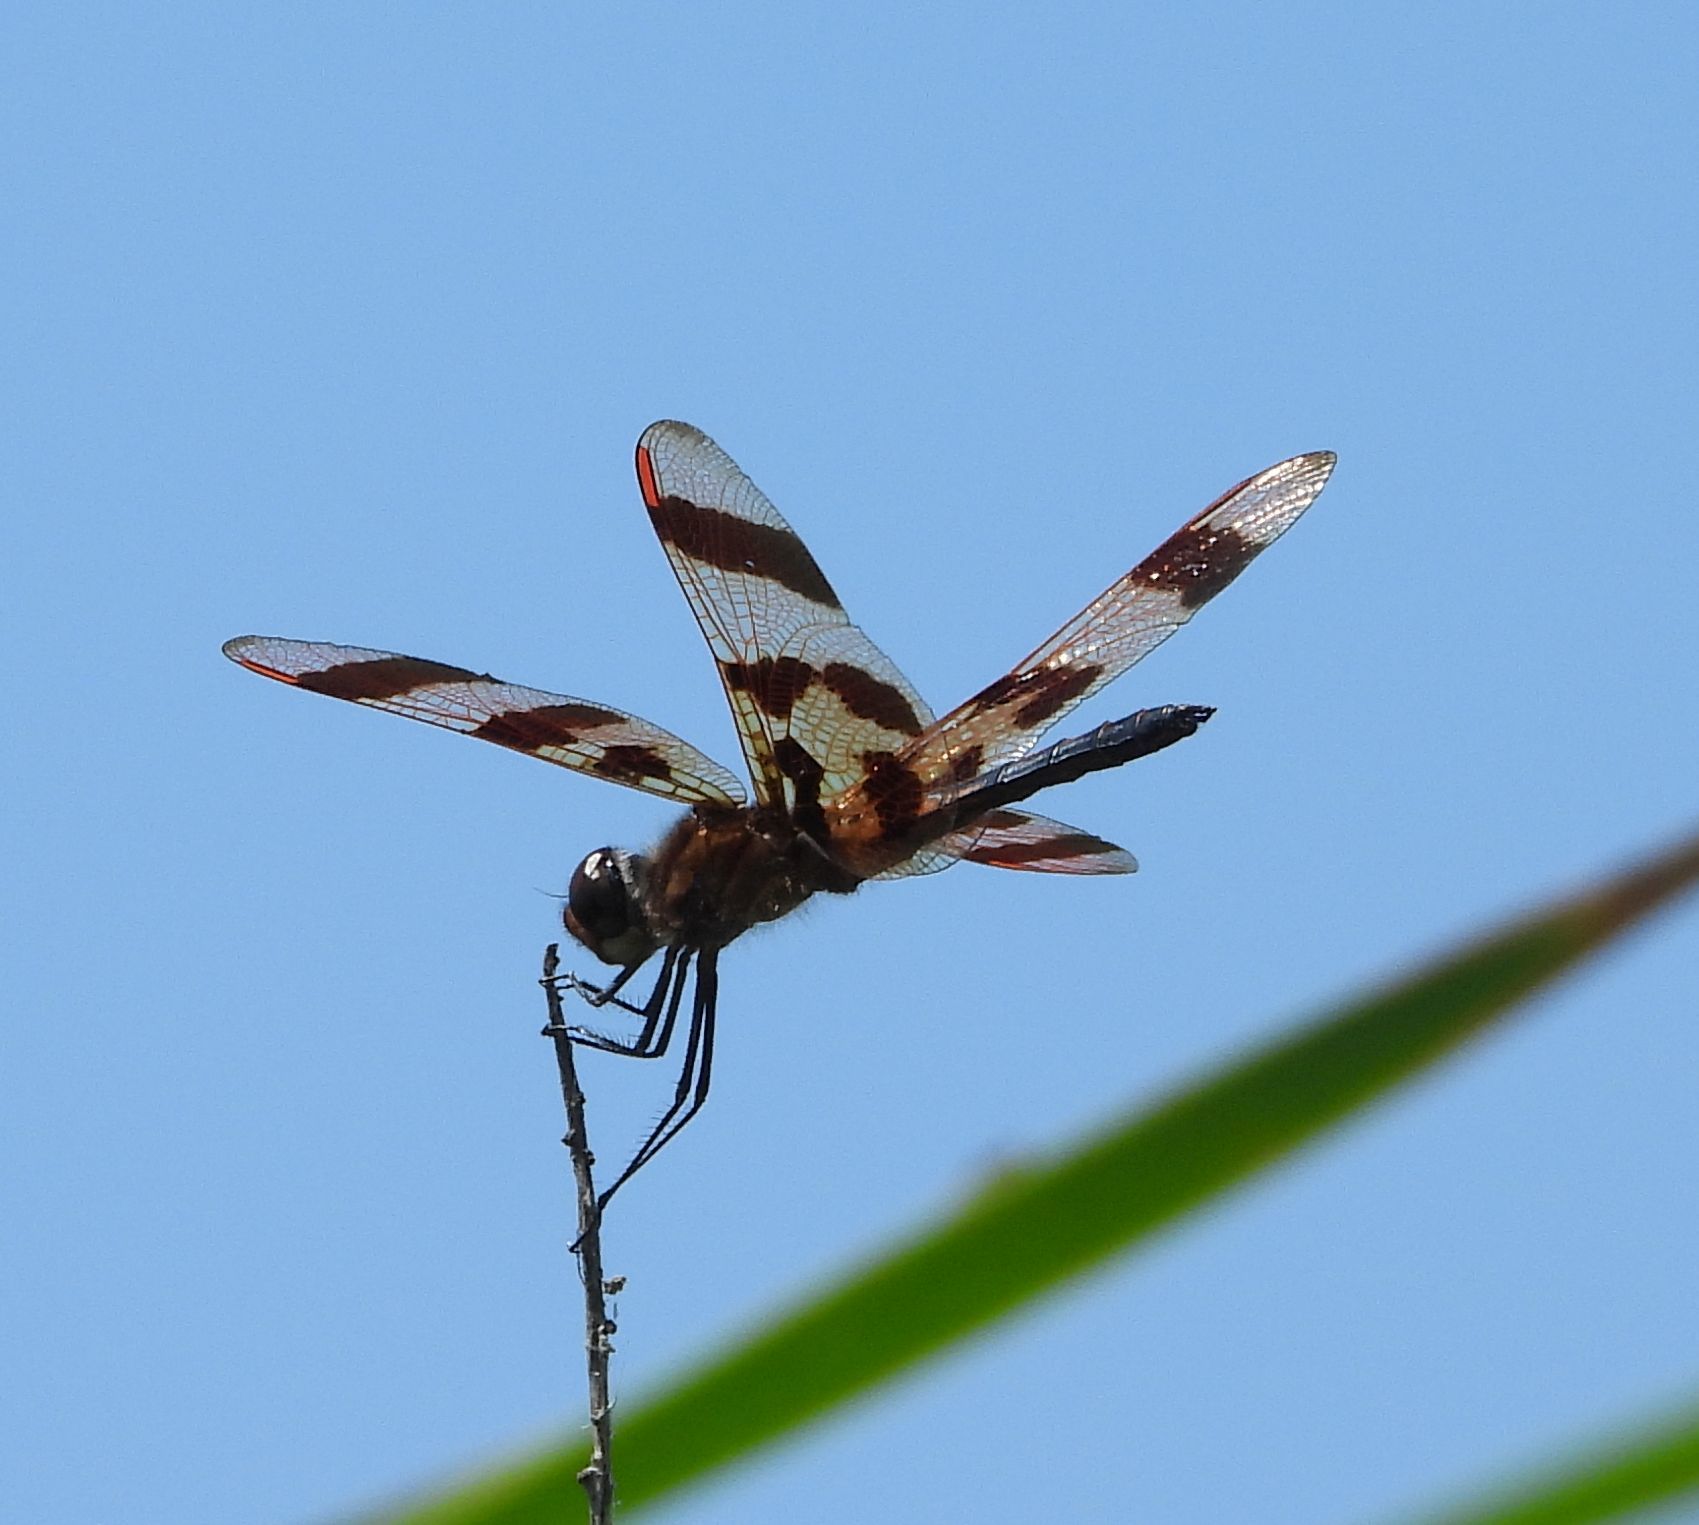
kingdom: Animalia
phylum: Arthropoda
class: Insecta
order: Odonata
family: Libellulidae
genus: Celithemis
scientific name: Celithemis eponina
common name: Halloween pennant
